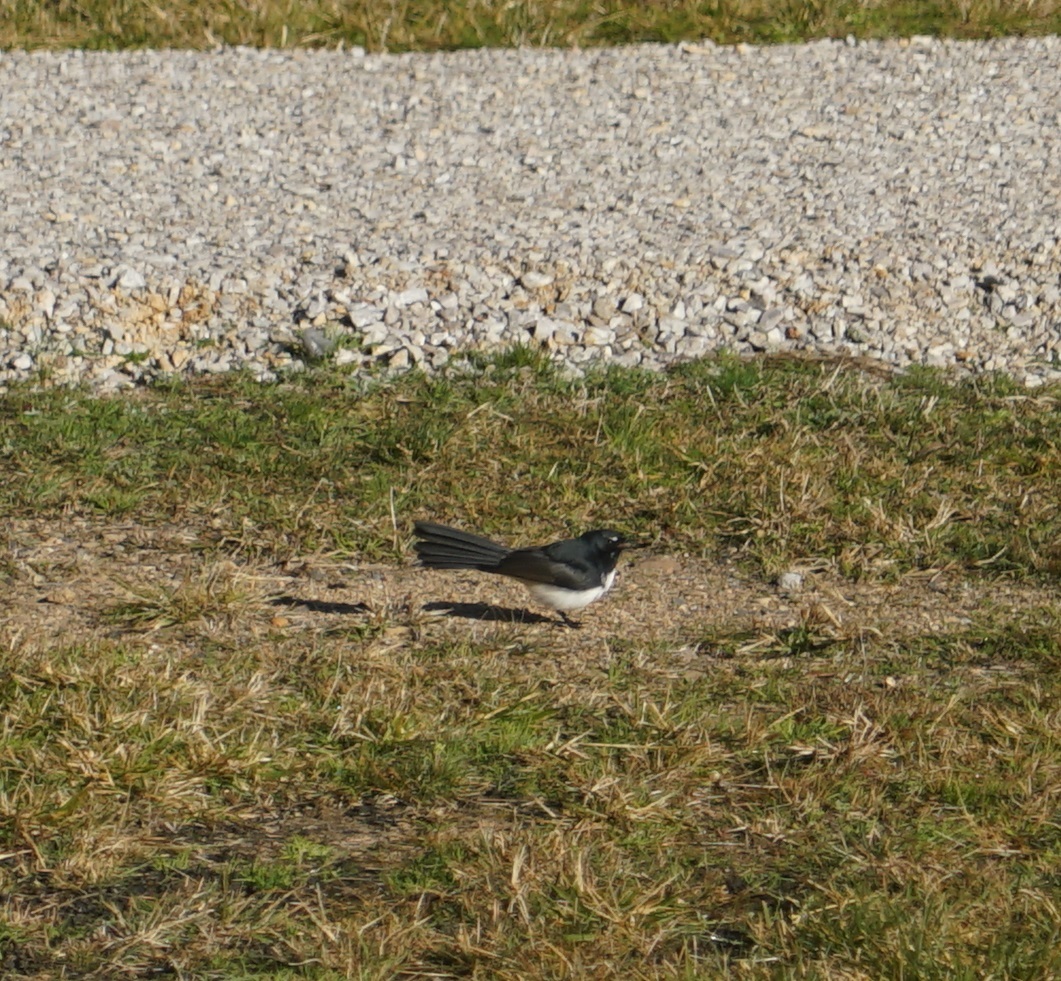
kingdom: Animalia
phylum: Chordata
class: Aves
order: Passeriformes
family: Rhipiduridae
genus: Rhipidura
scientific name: Rhipidura leucophrys
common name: Willie wagtail
